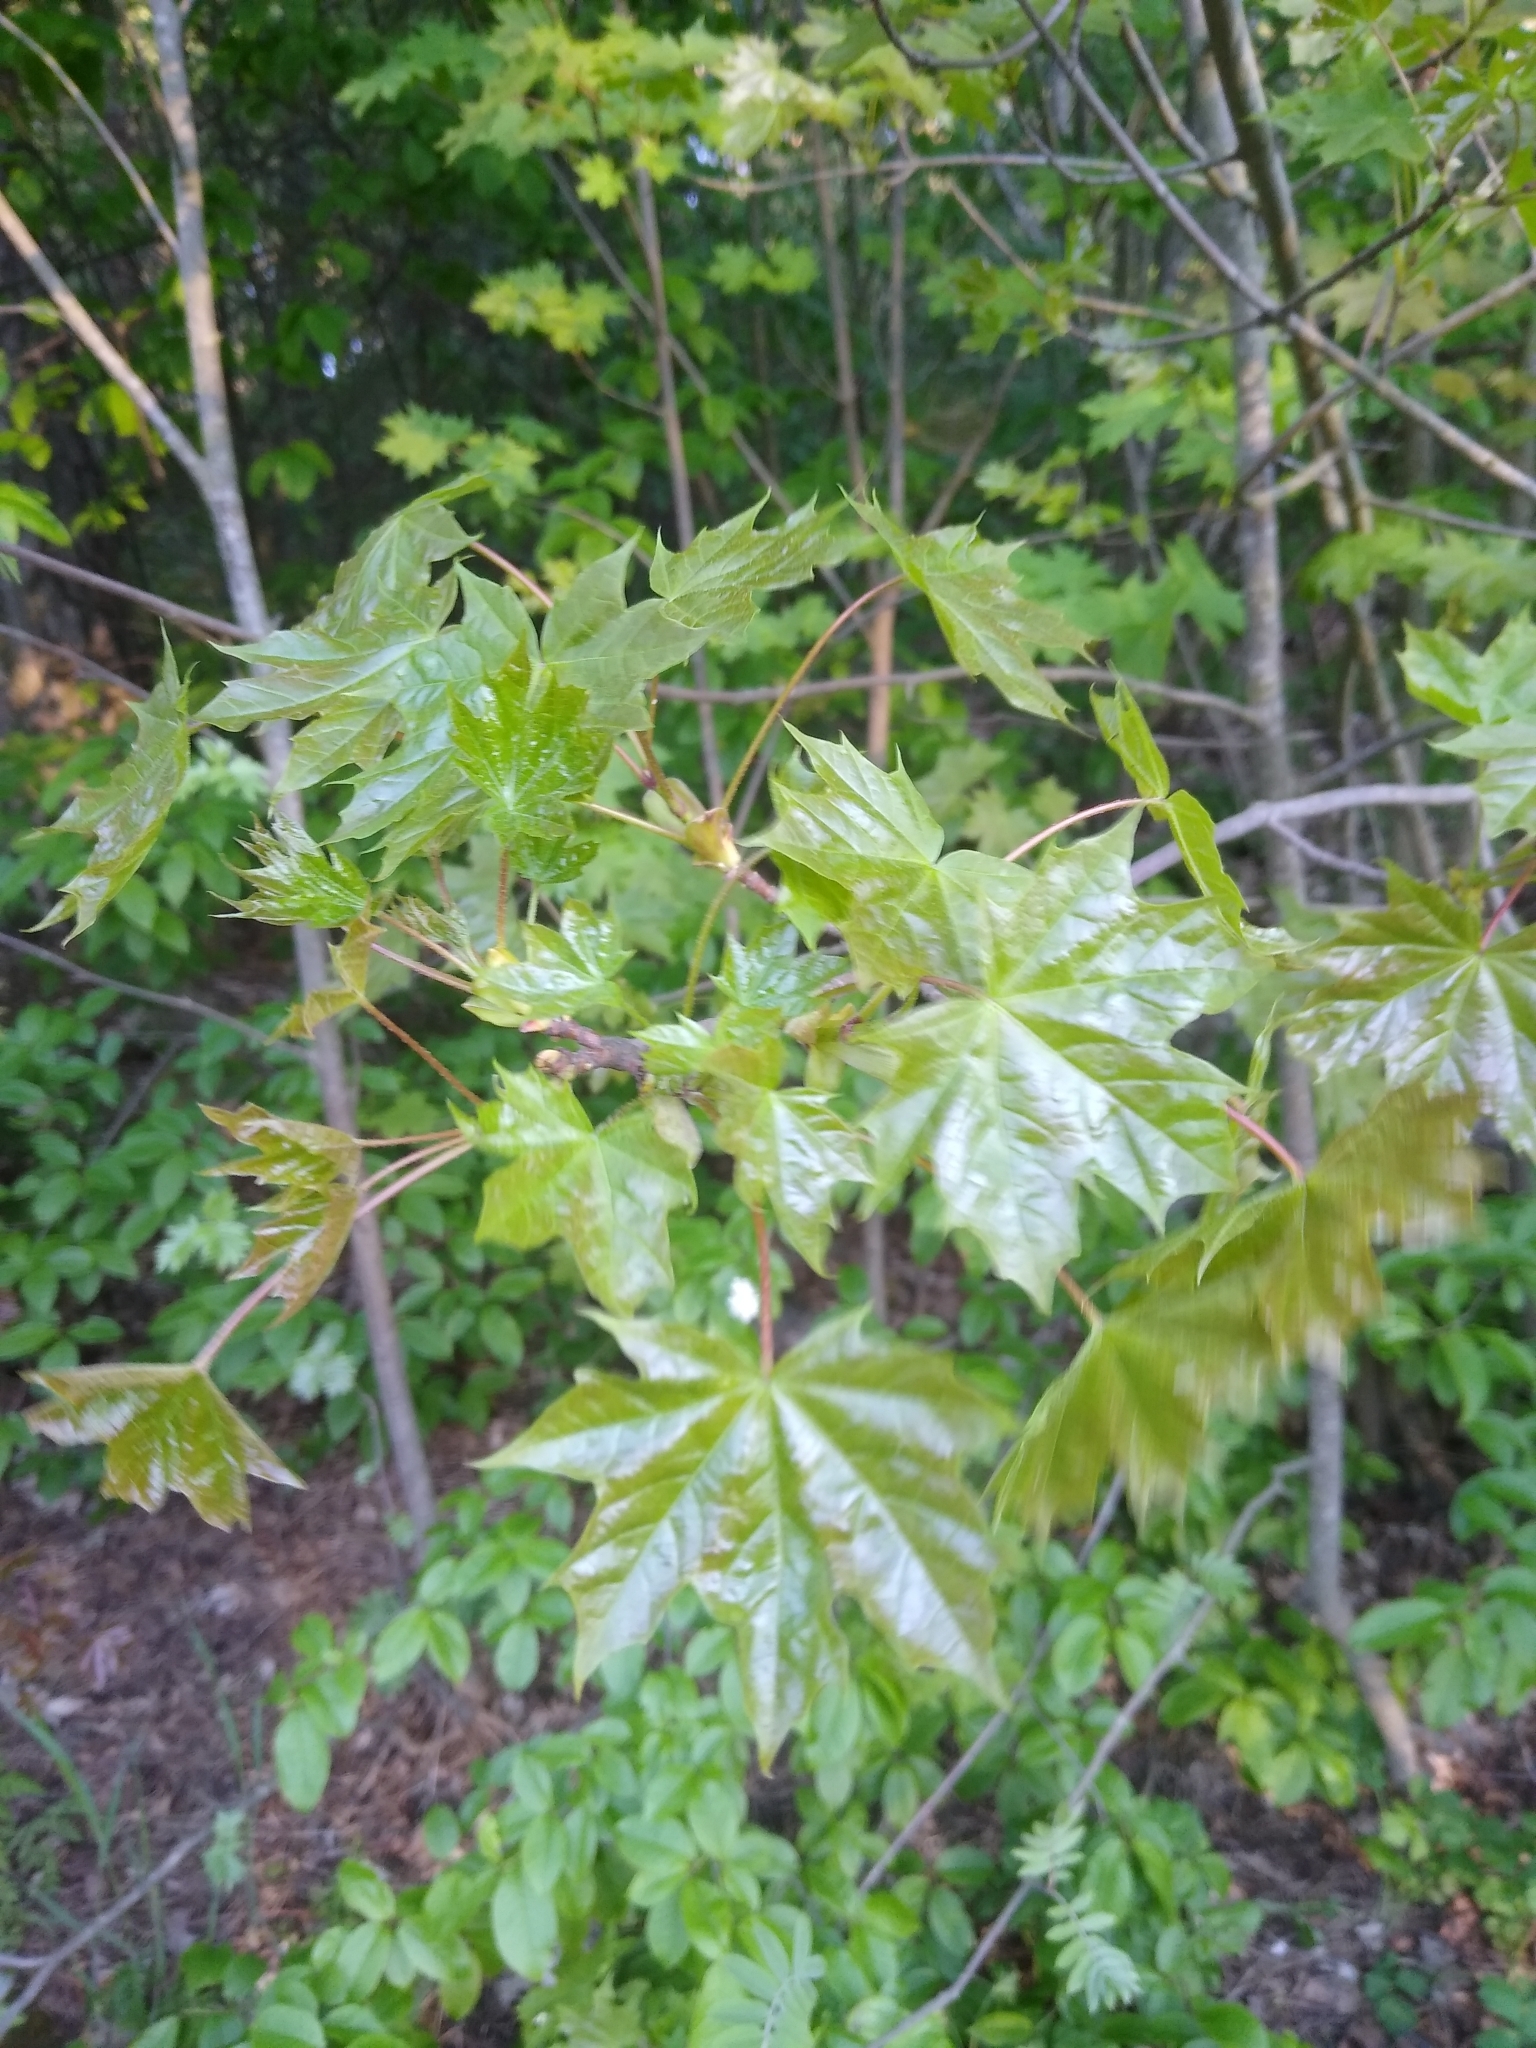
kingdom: Plantae
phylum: Tracheophyta
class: Magnoliopsida
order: Sapindales
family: Sapindaceae
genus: Acer
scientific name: Acer platanoides
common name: Norway maple
